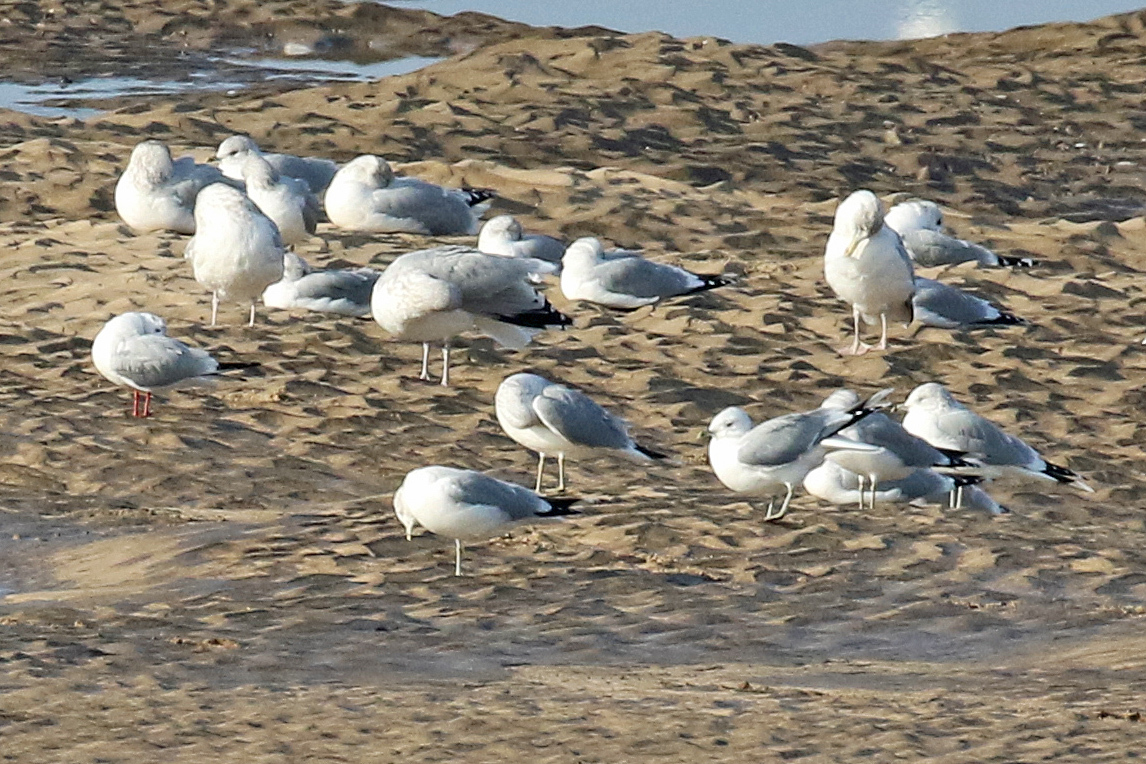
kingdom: Animalia
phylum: Chordata
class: Aves
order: Charadriiformes
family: Laridae
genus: Larus
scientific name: Larus canus
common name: Mew gull
